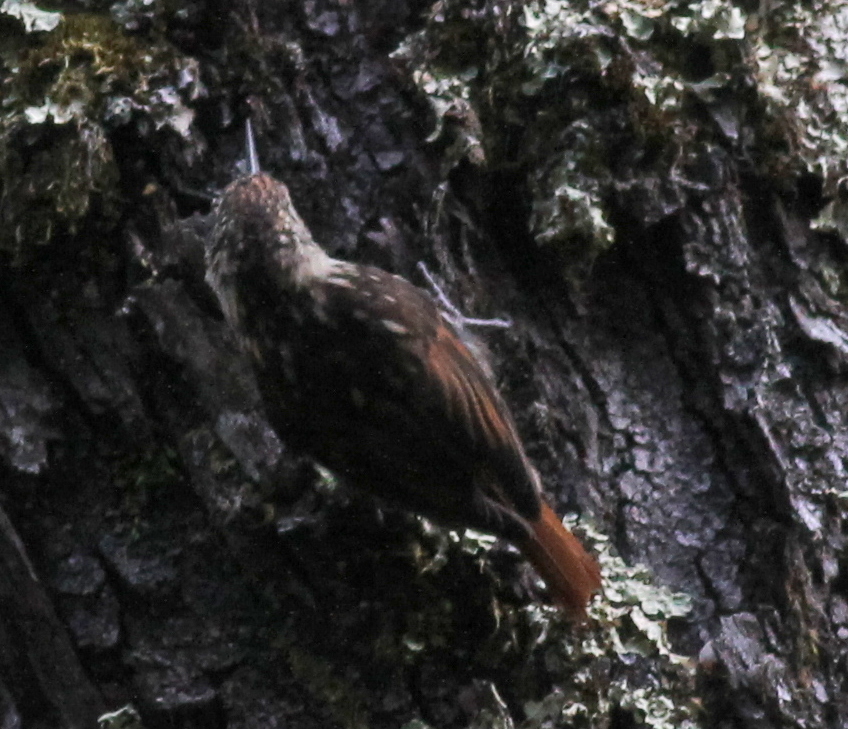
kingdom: Animalia
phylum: Chordata
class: Aves
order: Passeriformes
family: Furnariidae
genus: Pygarrhichas
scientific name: Pygarrhichas albogularis
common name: White-throated treerunner
